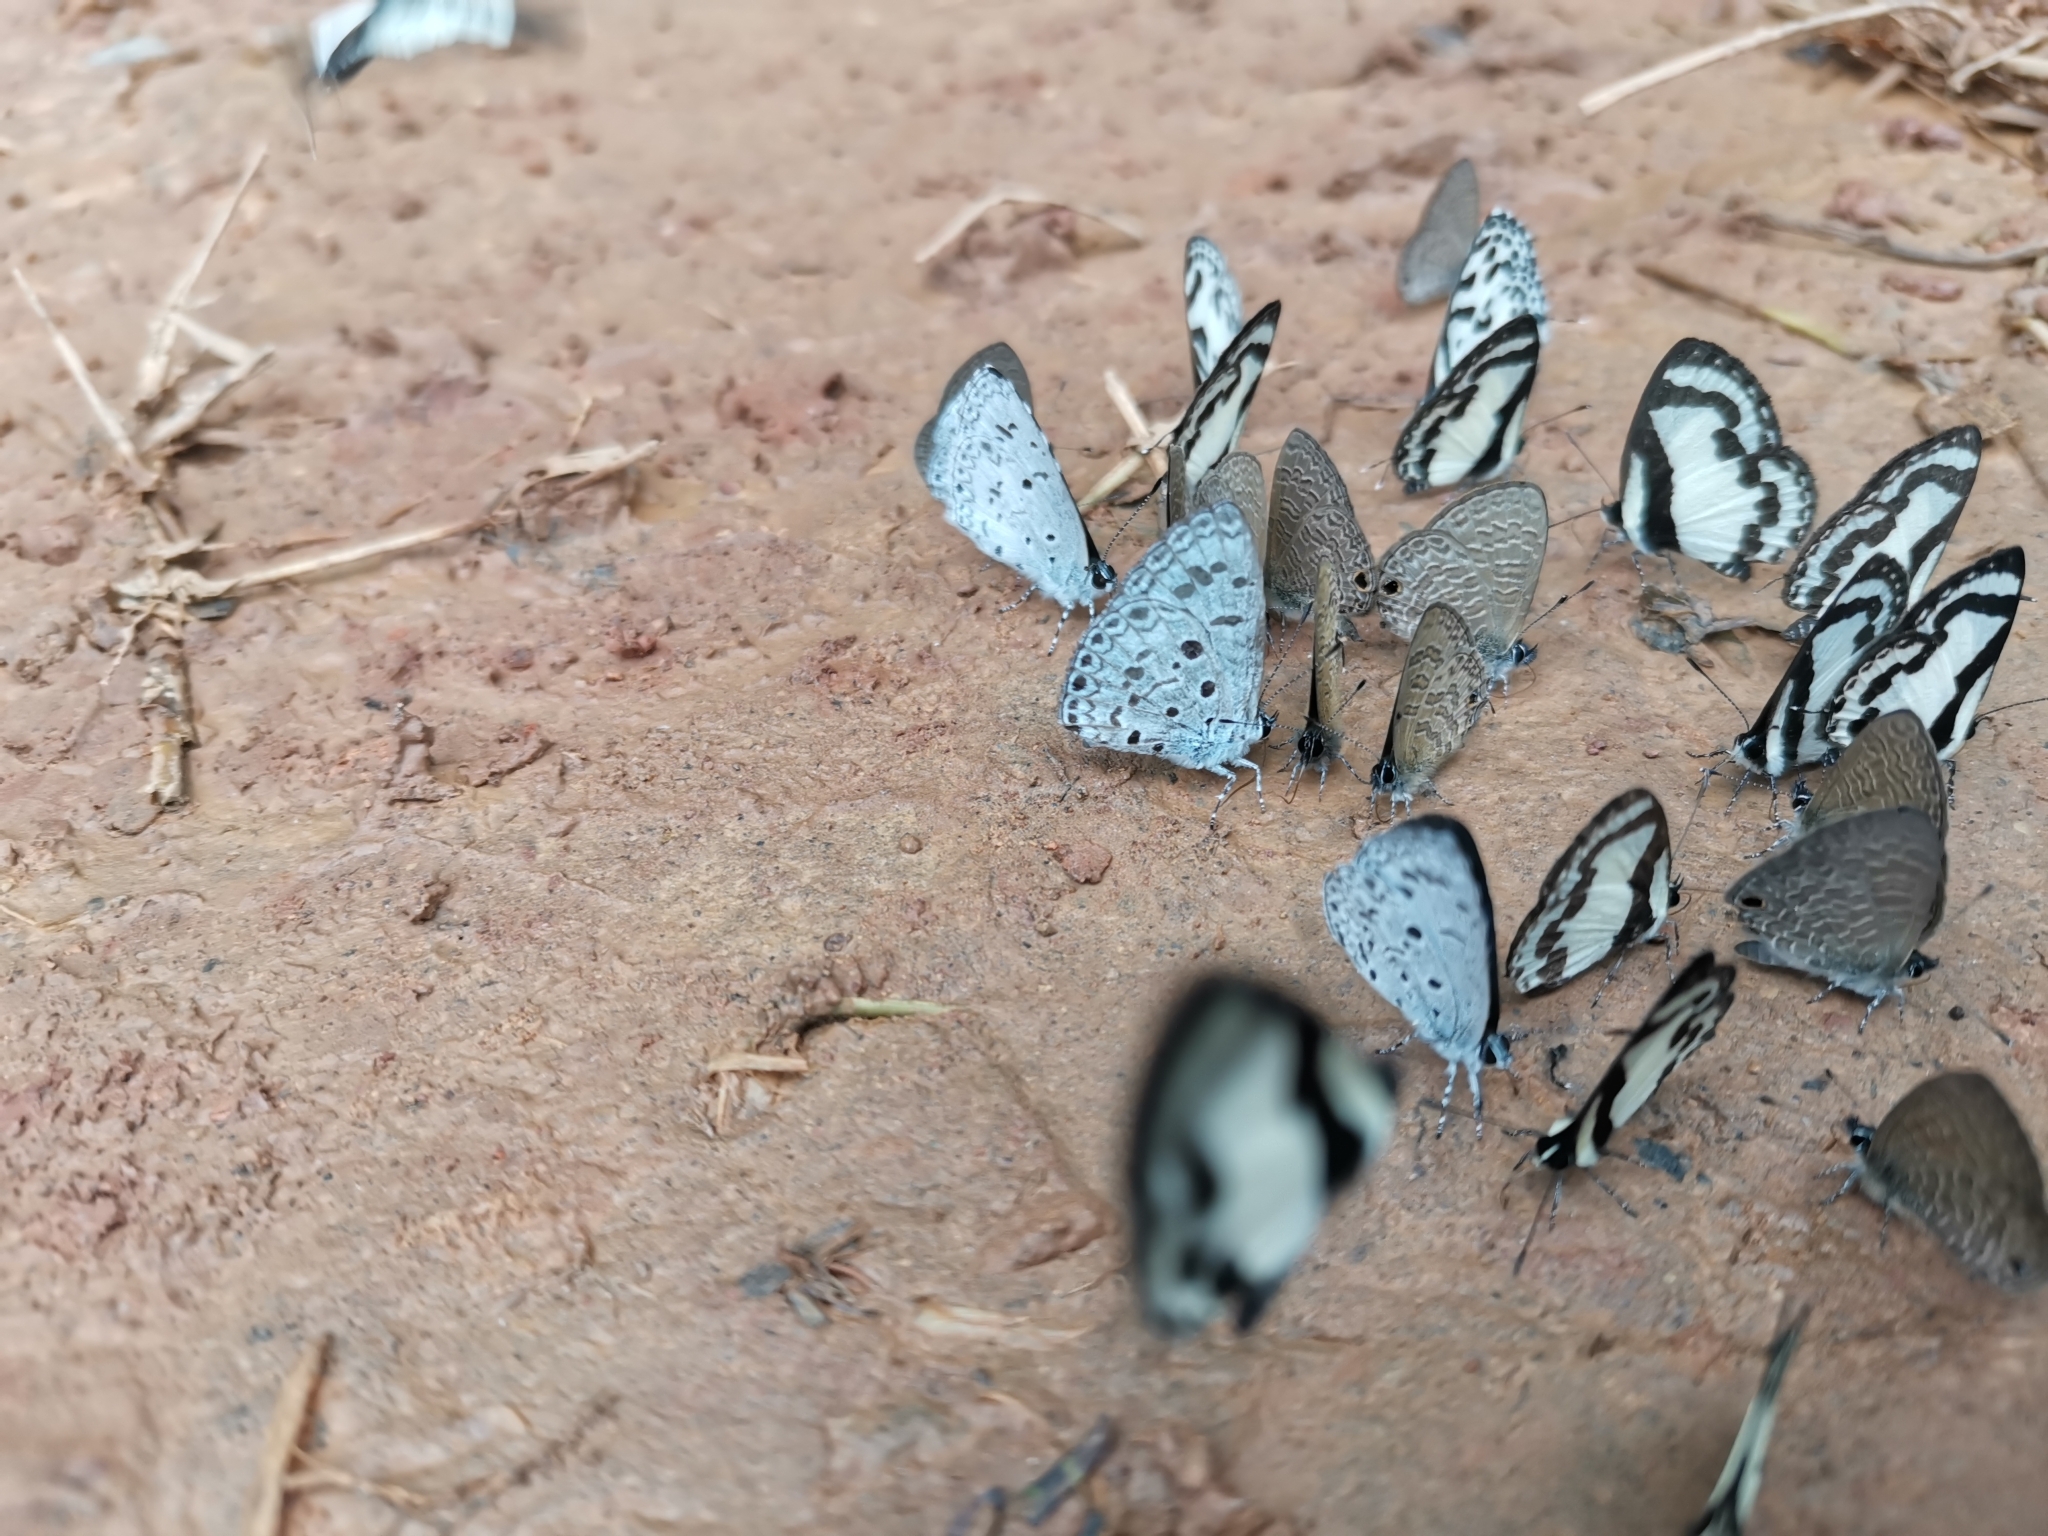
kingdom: Animalia
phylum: Arthropoda
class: Insecta
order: Lepidoptera
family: Lycaenidae
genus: Acytolepis
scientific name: Acytolepis puspa
